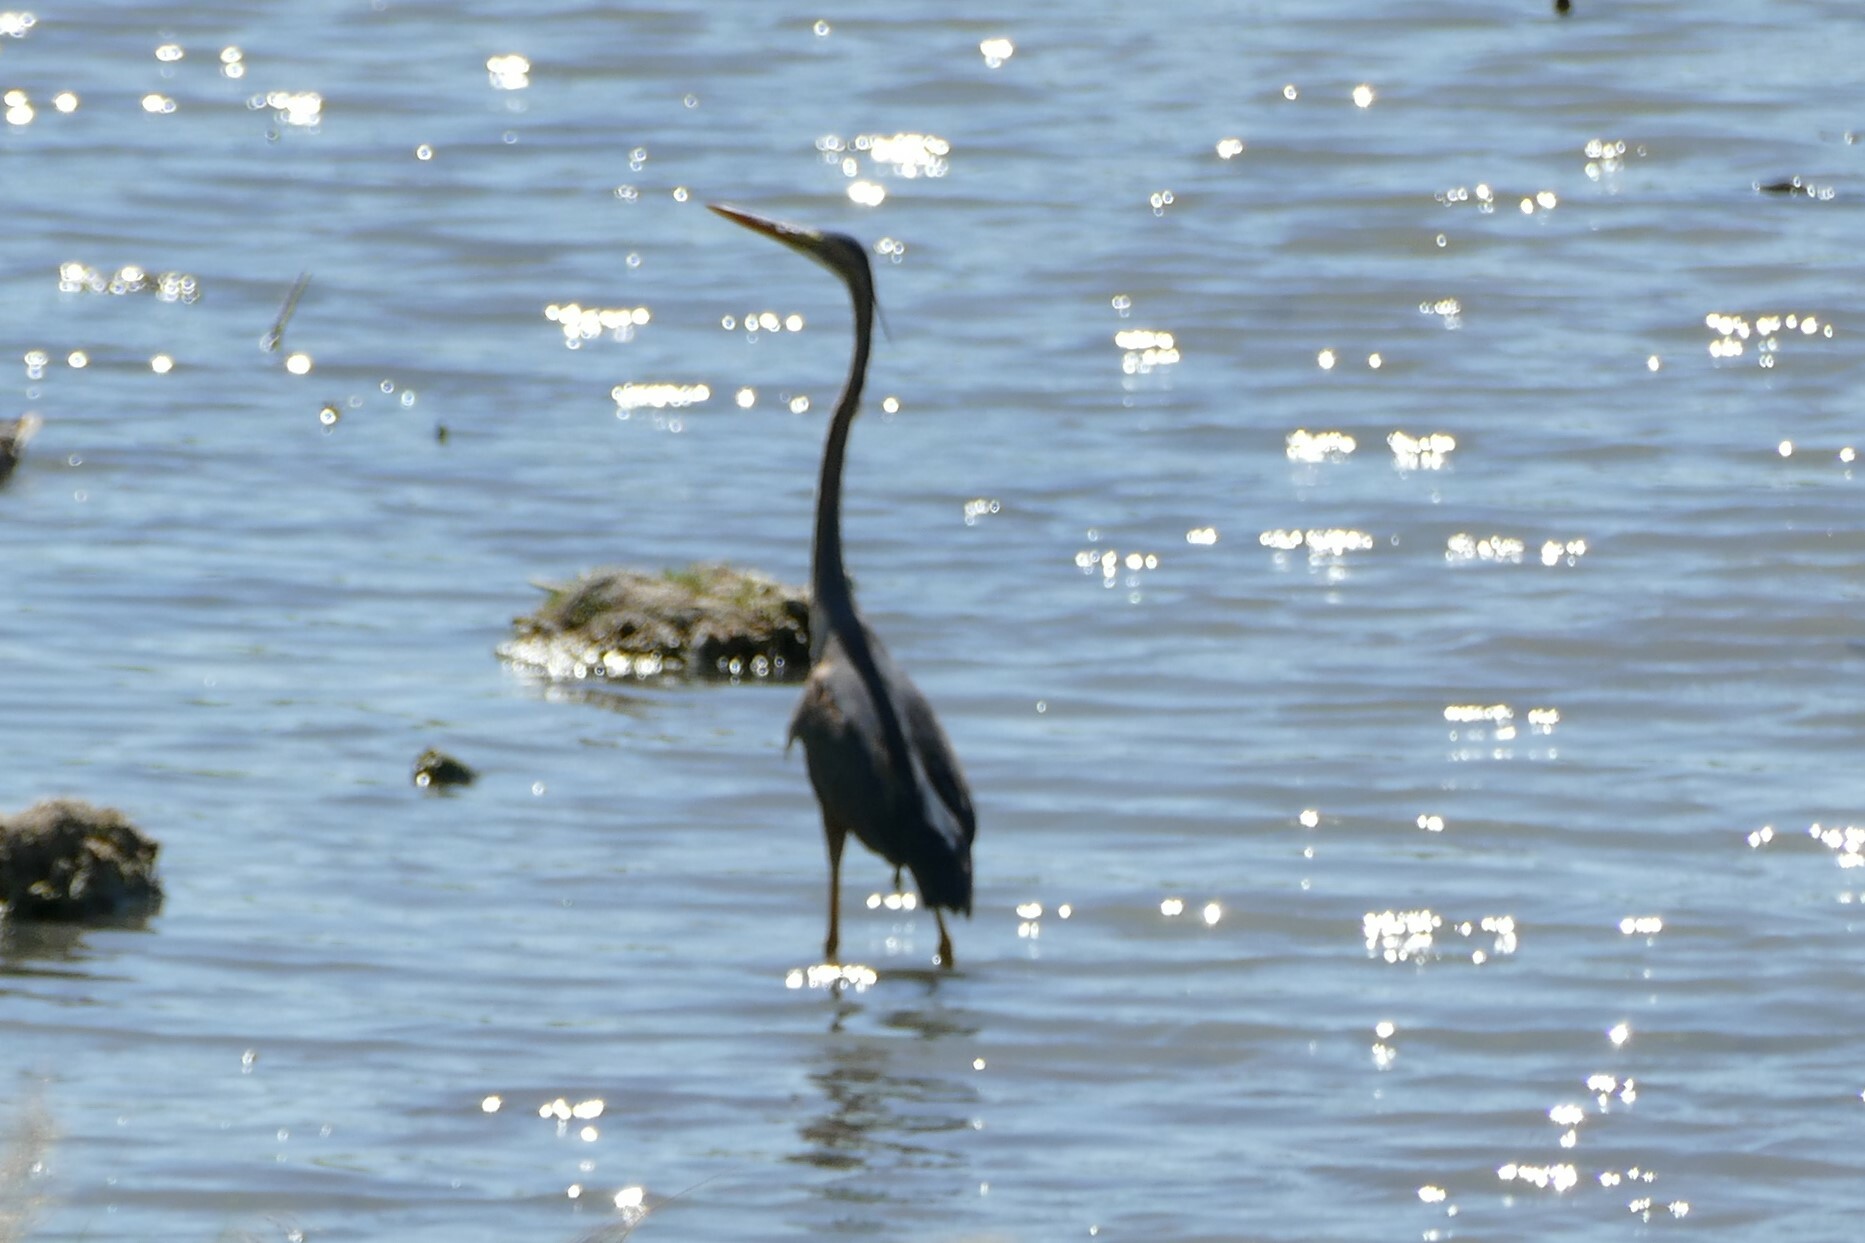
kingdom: Animalia
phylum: Chordata
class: Aves
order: Pelecaniformes
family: Ardeidae
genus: Ardea
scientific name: Ardea purpurea
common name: Purple heron
